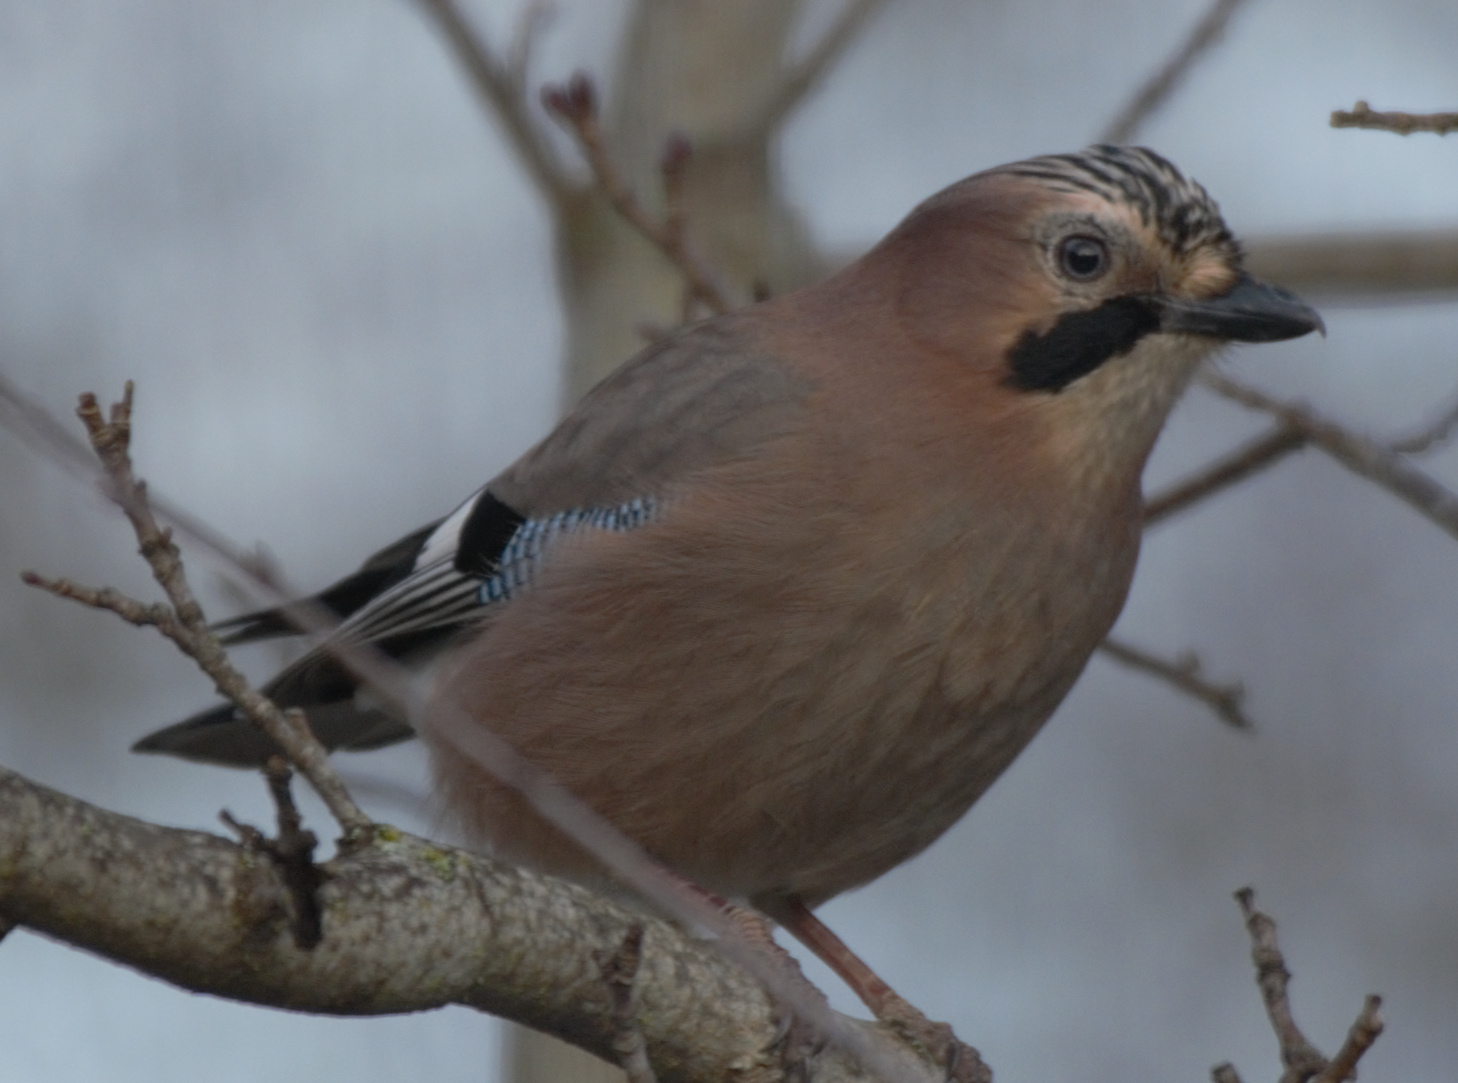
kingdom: Animalia
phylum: Chordata
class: Aves
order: Passeriformes
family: Corvidae
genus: Garrulus
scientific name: Garrulus glandarius
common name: Eurasian jay
